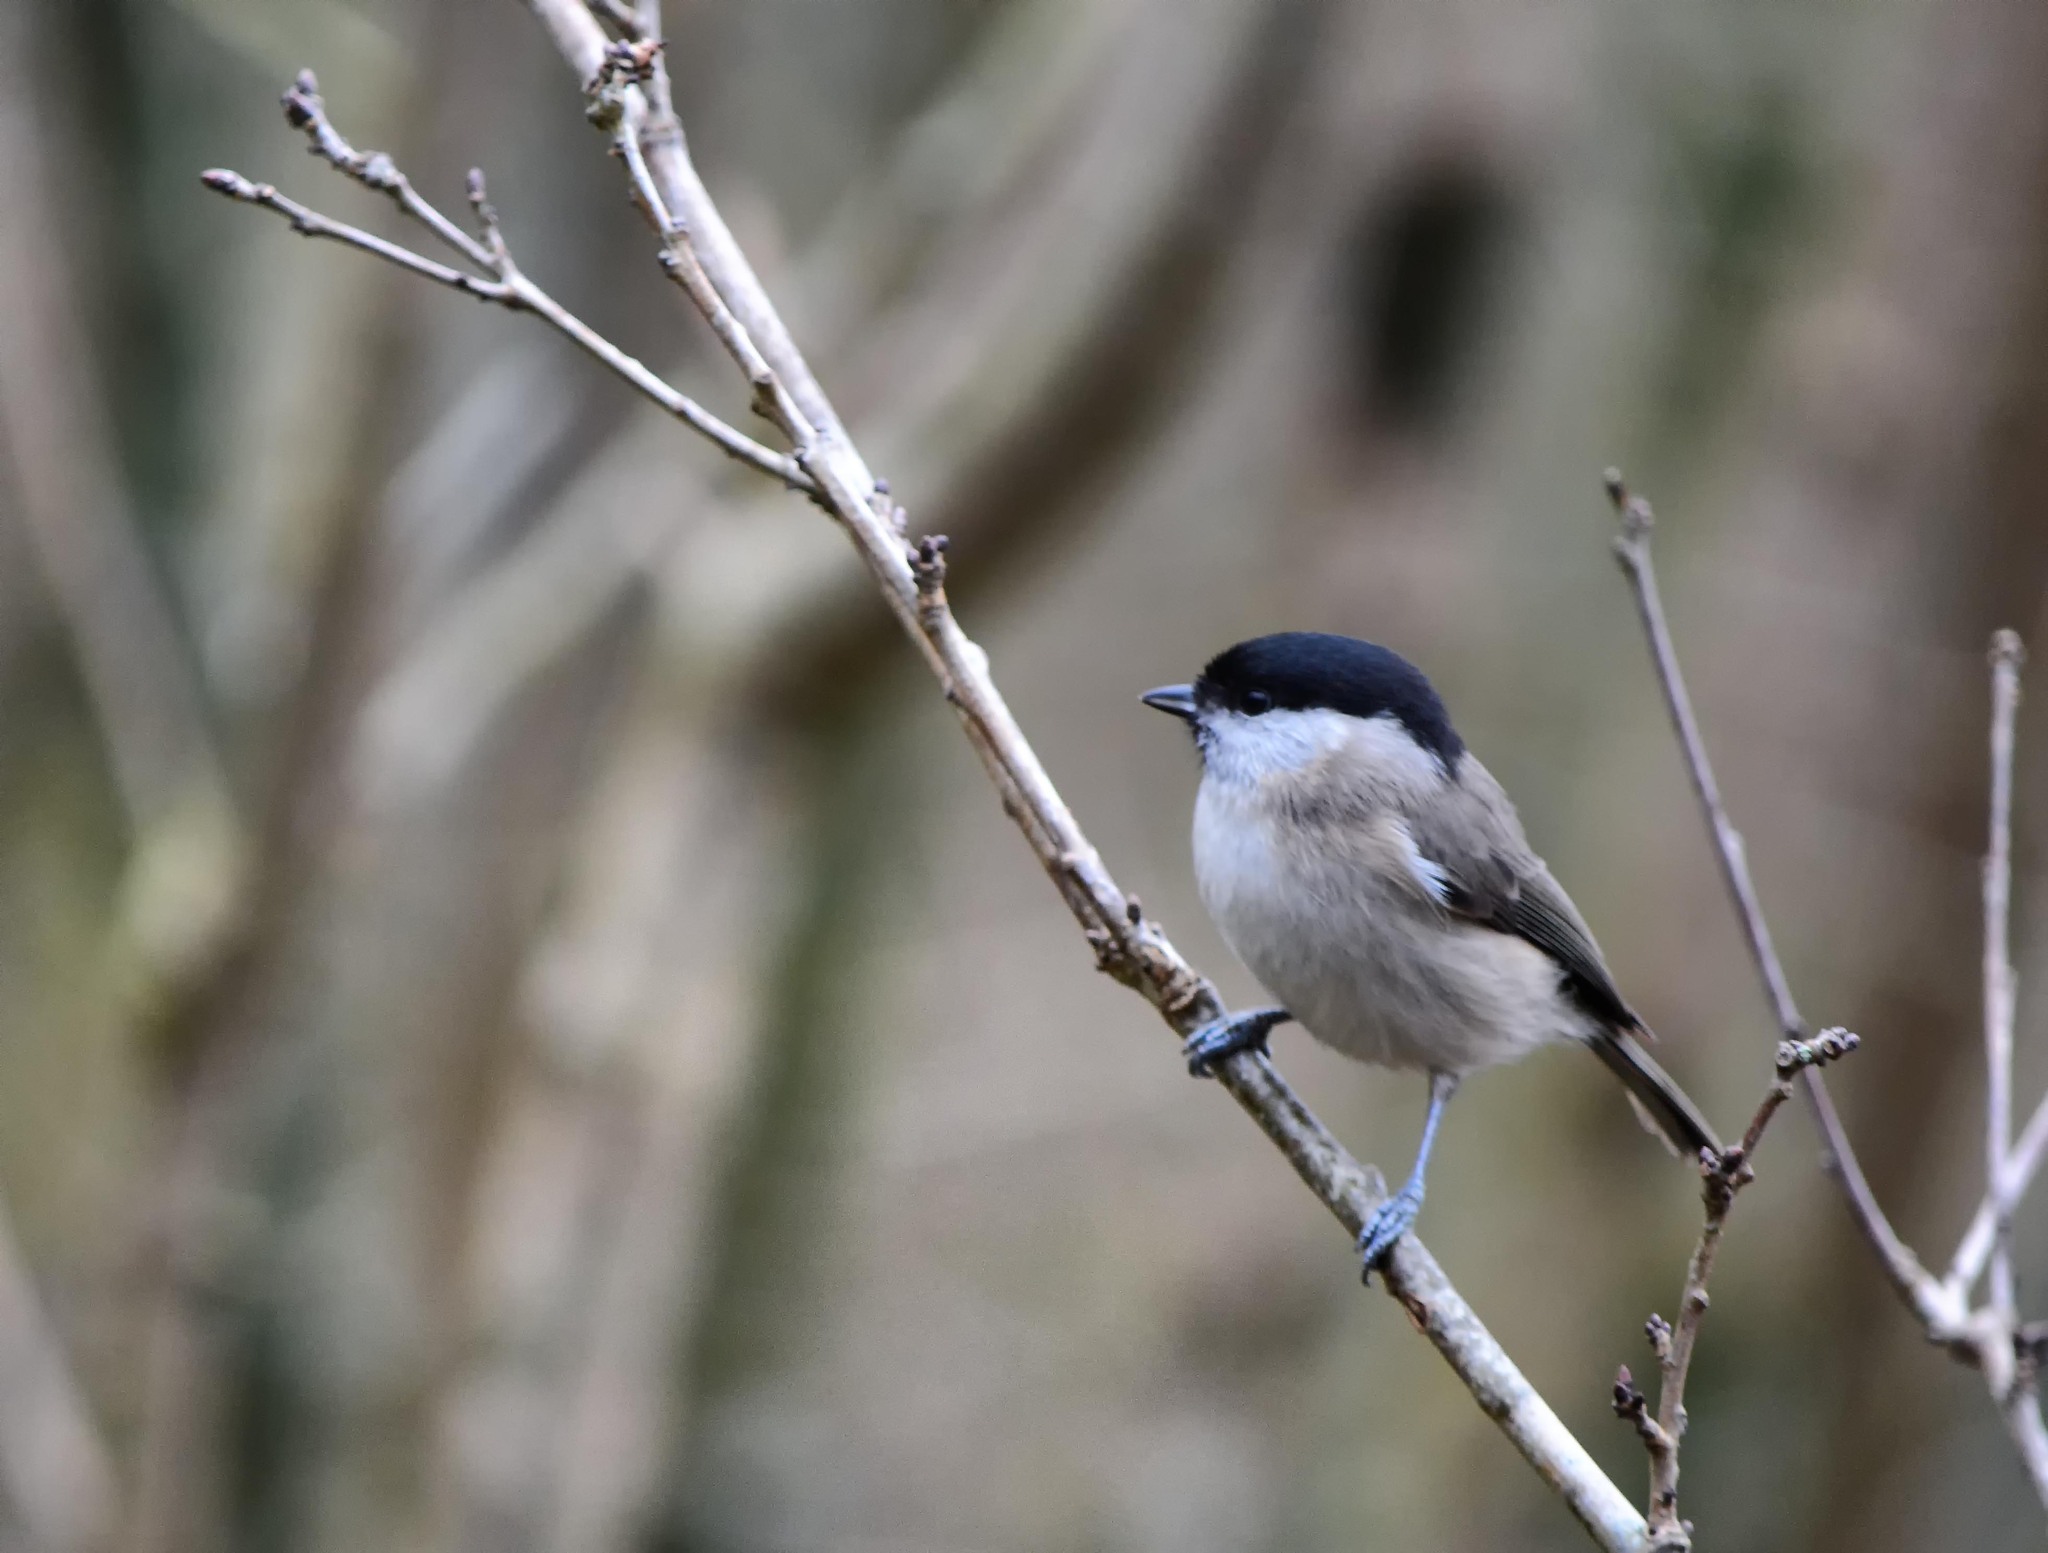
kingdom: Animalia
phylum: Chordata
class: Aves
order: Passeriformes
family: Paridae
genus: Poecile
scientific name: Poecile palustris
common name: Marsh tit
